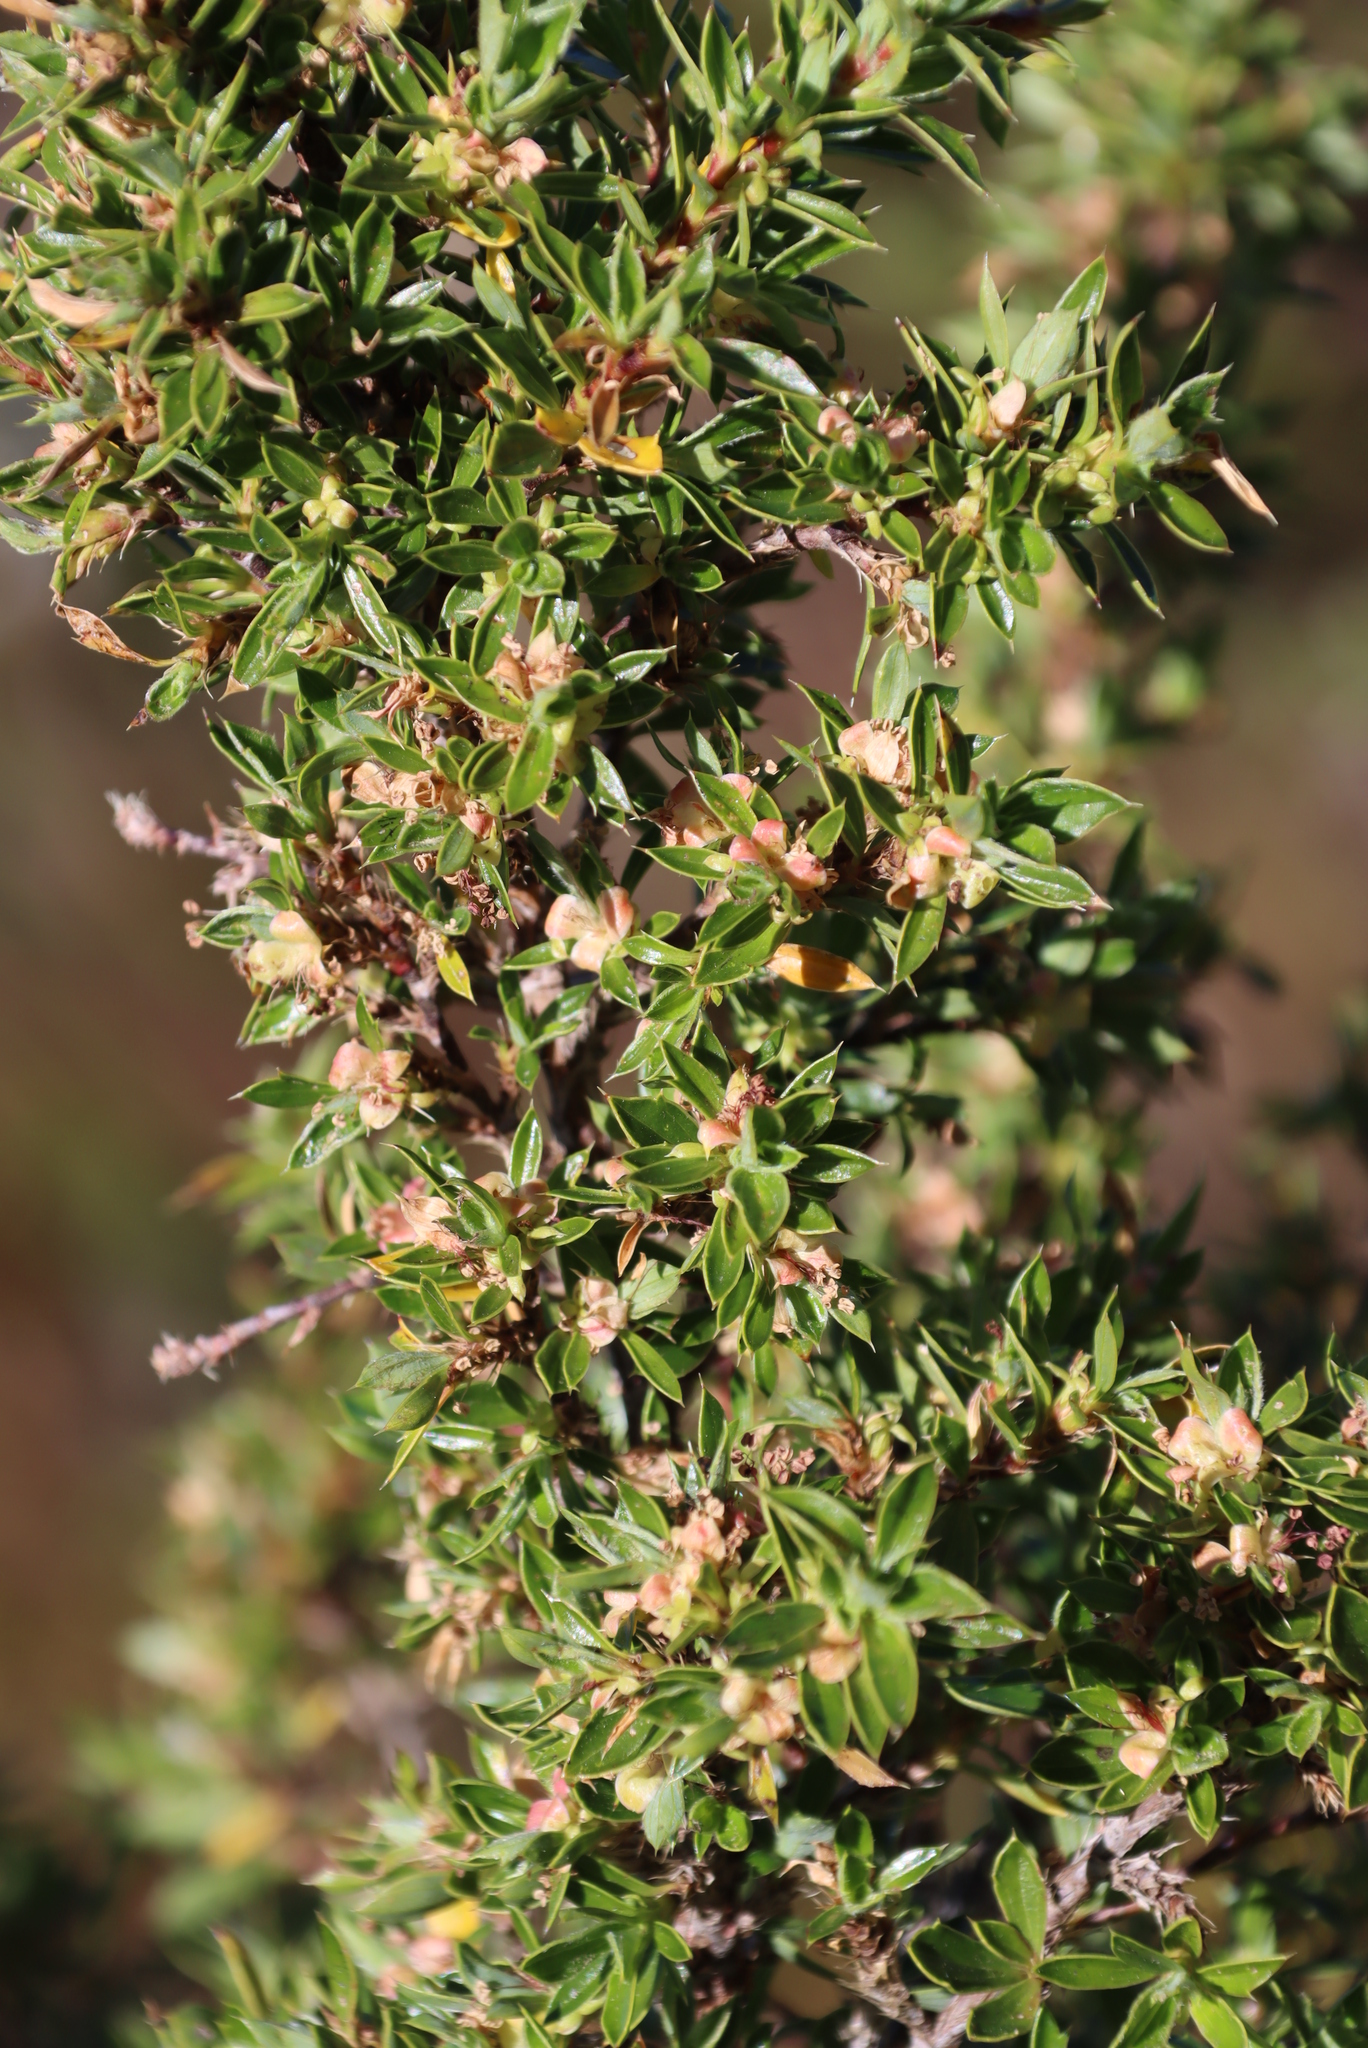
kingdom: Plantae
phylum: Tracheophyta
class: Magnoliopsida
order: Rosales
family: Rosaceae
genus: Cliffortia
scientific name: Cliffortia tridentata
